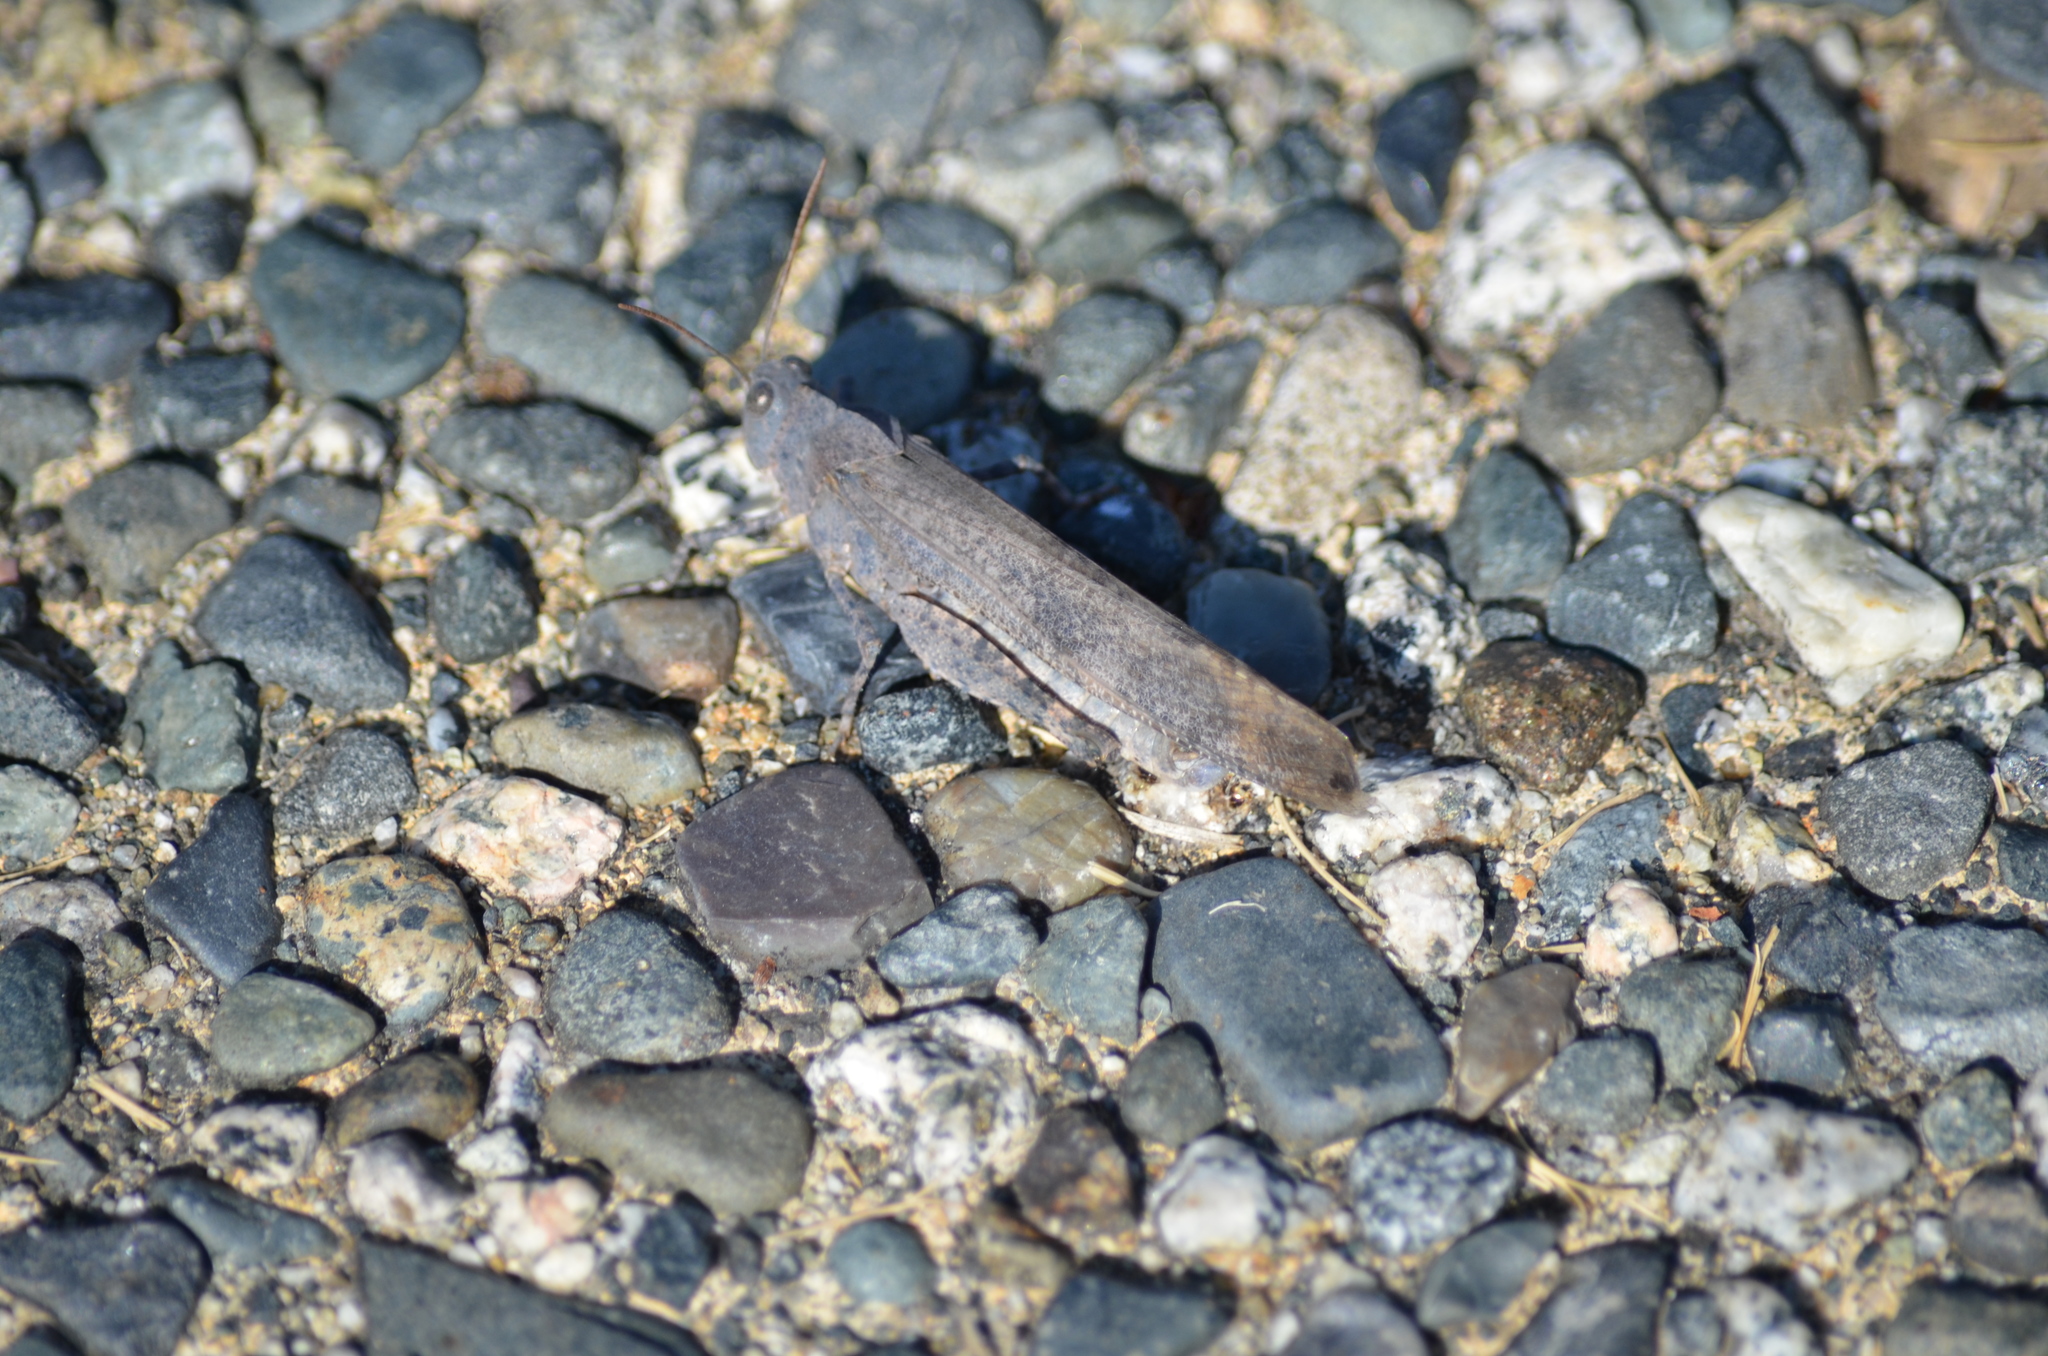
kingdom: Animalia
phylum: Arthropoda
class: Insecta
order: Orthoptera
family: Acrididae
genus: Dissosteira
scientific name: Dissosteira carolina
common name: Carolina grasshopper
